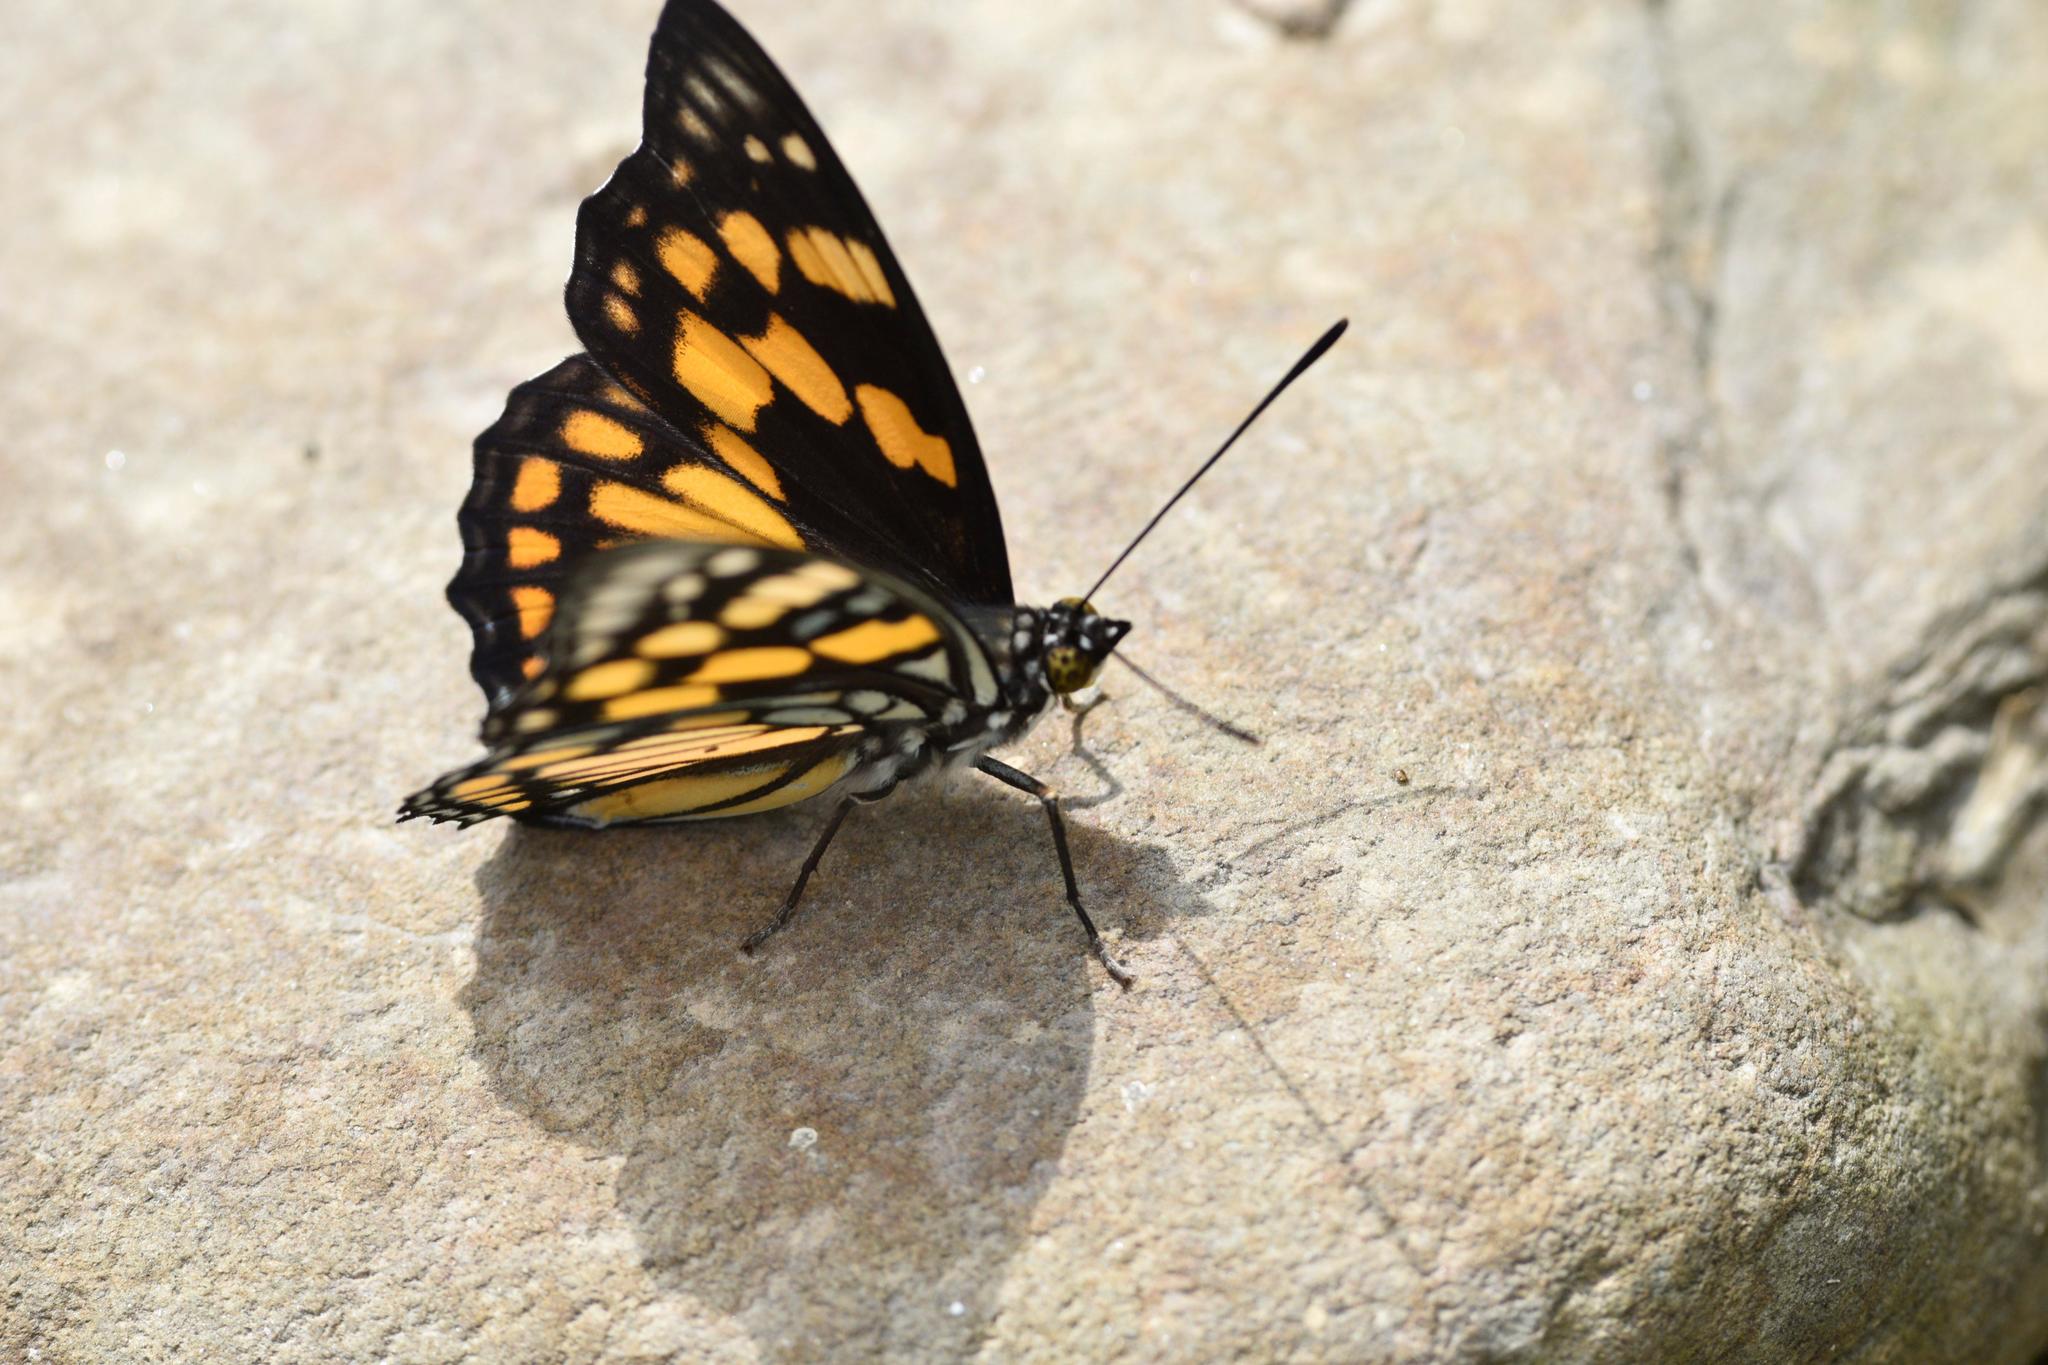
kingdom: Animalia
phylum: Arthropoda
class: Insecta
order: Lepidoptera
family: Nymphalidae
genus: Sephisa
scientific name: Sephisa dichroa
